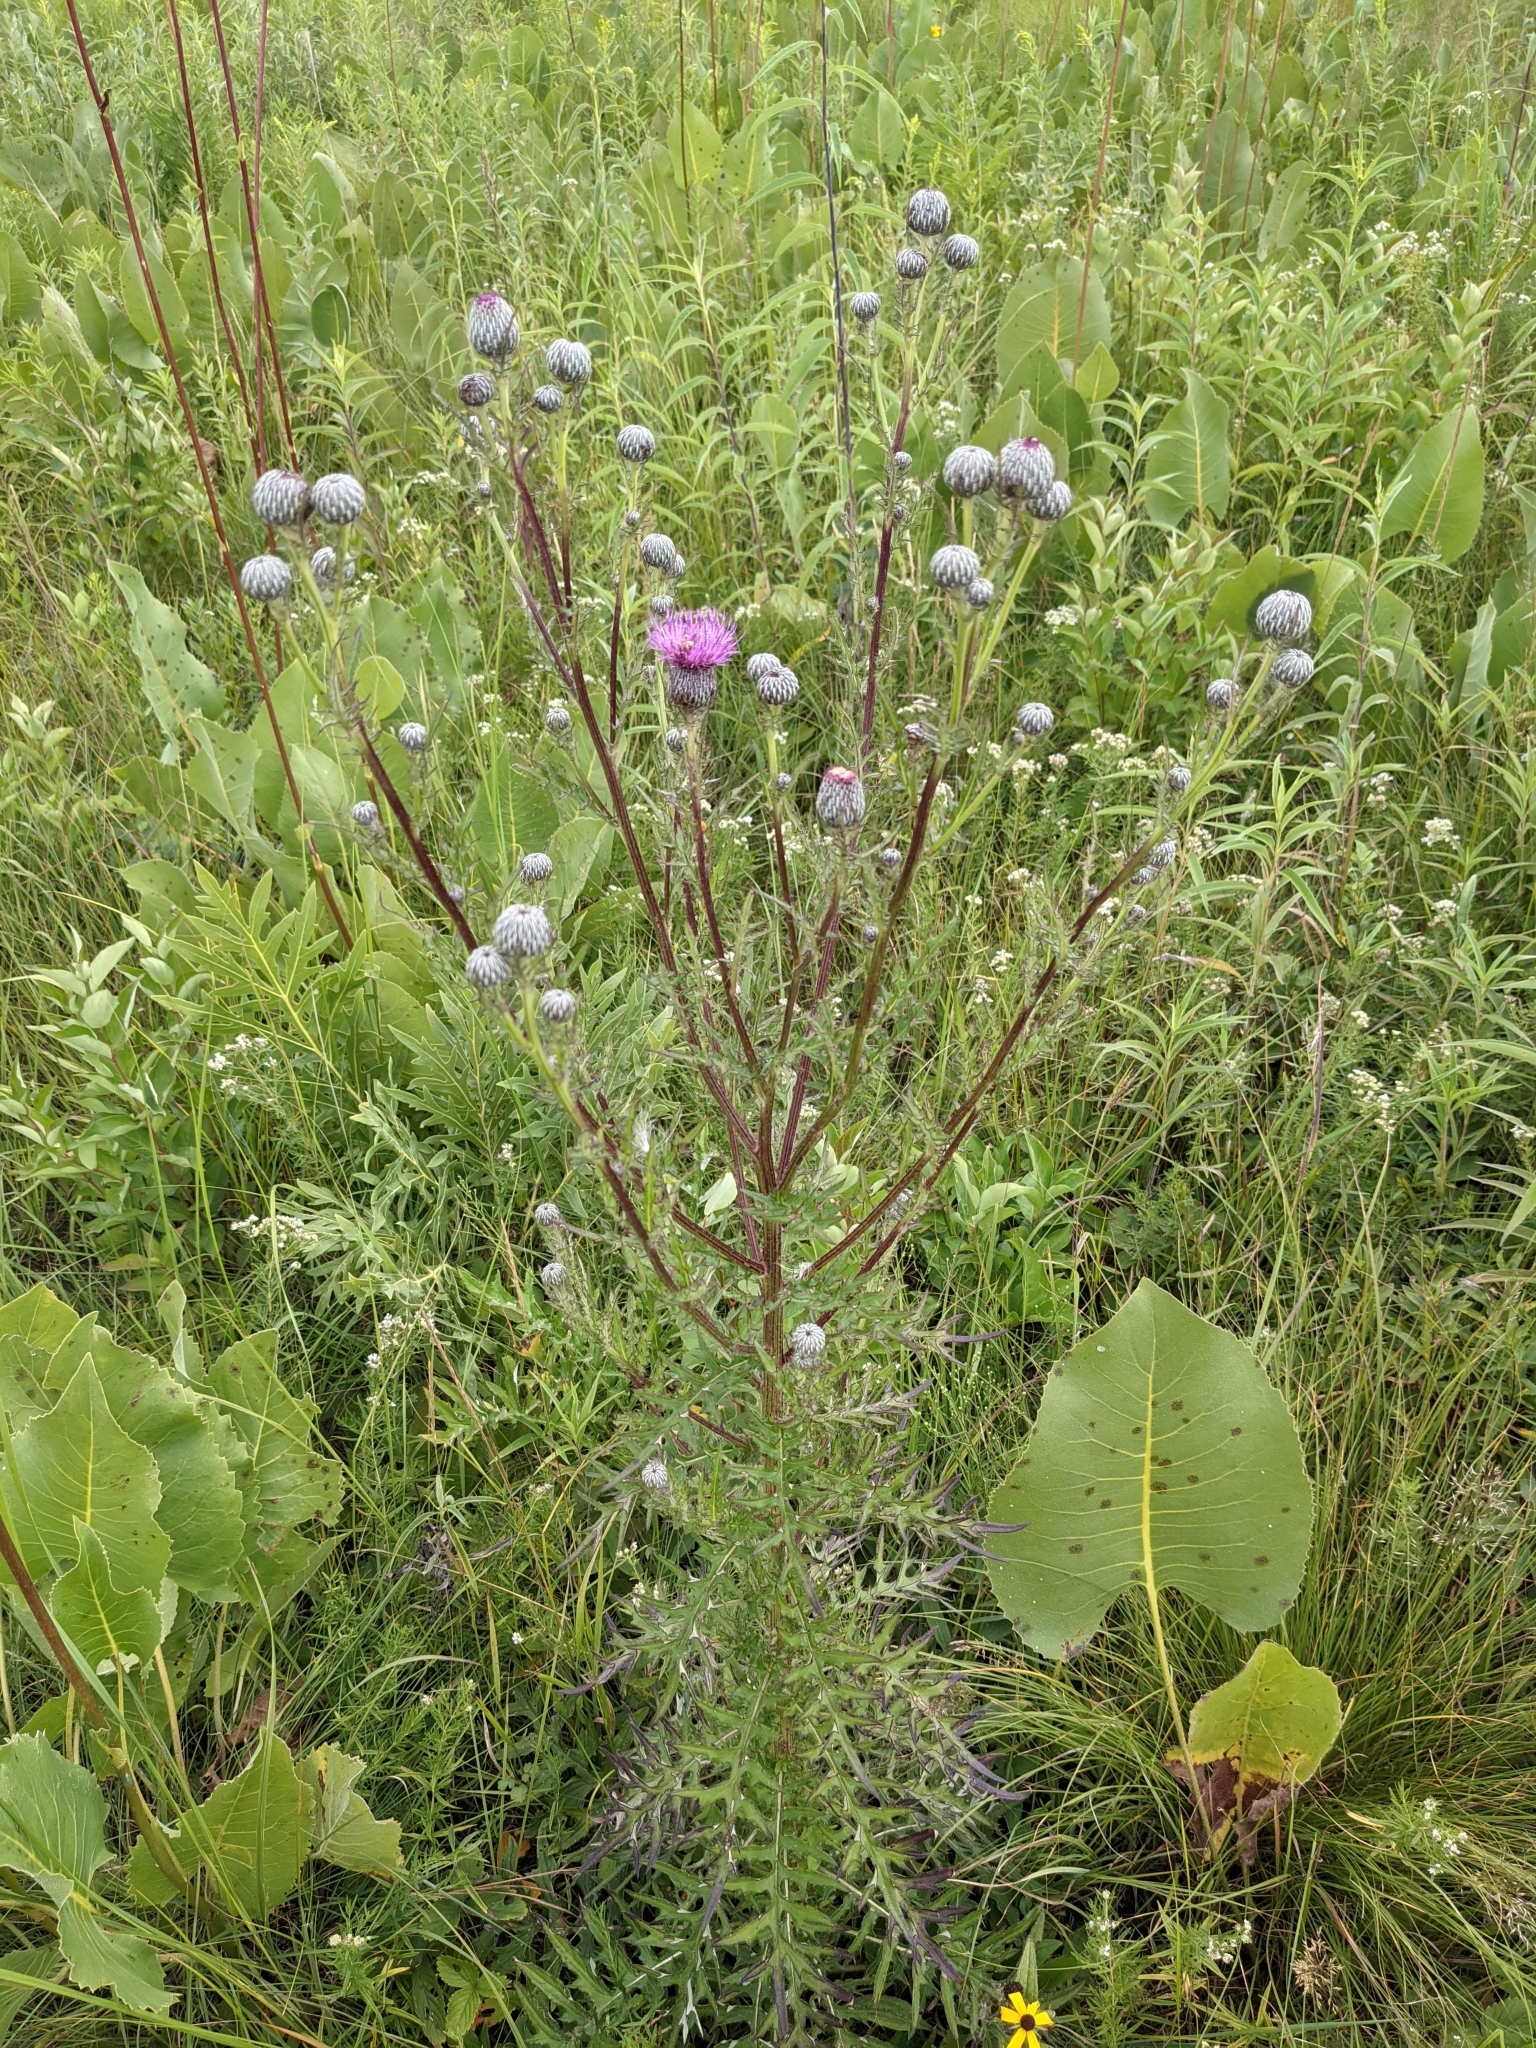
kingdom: Plantae
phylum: Tracheophyta
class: Magnoliopsida
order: Asterales
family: Asteraceae
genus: Cirsium
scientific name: Cirsium discolor
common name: Field thistle
